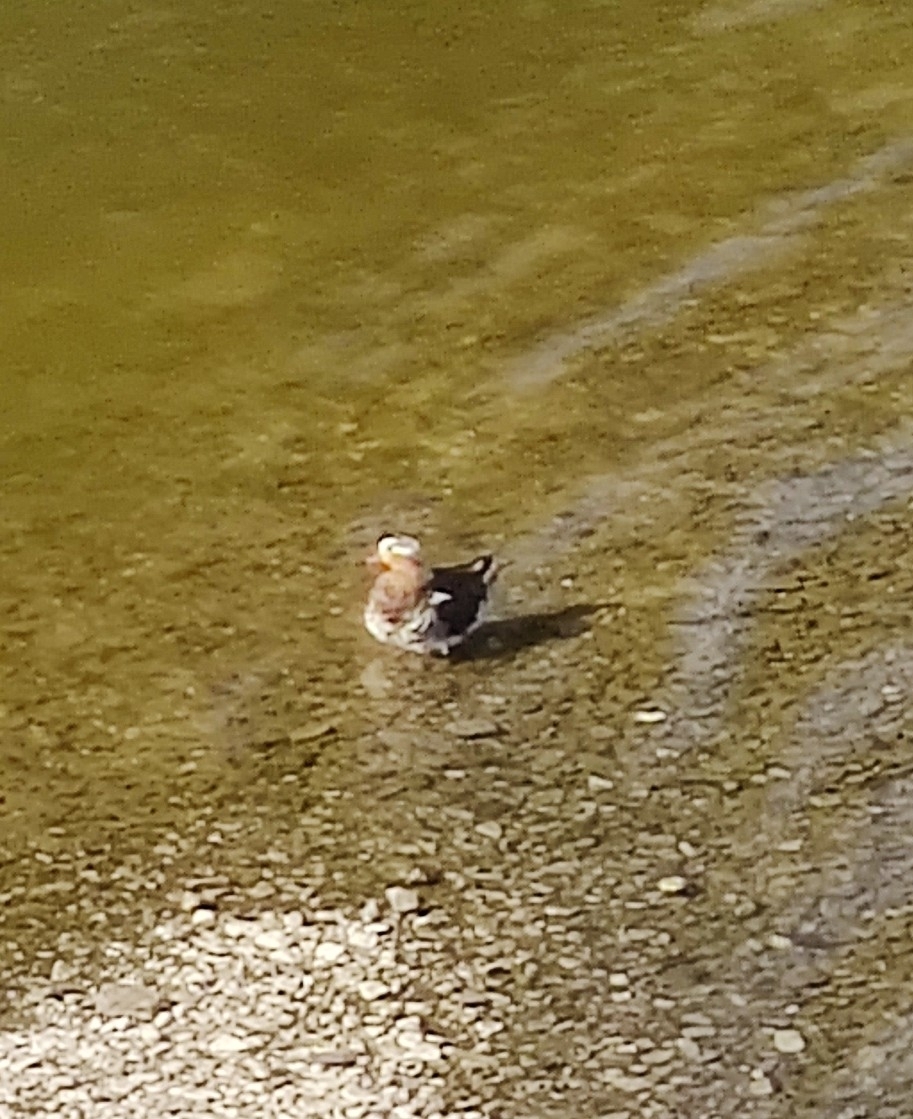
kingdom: Animalia
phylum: Chordata
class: Aves
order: Anseriformes
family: Anatidae
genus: Aix
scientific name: Aix galericulata
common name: Mandarin duck
